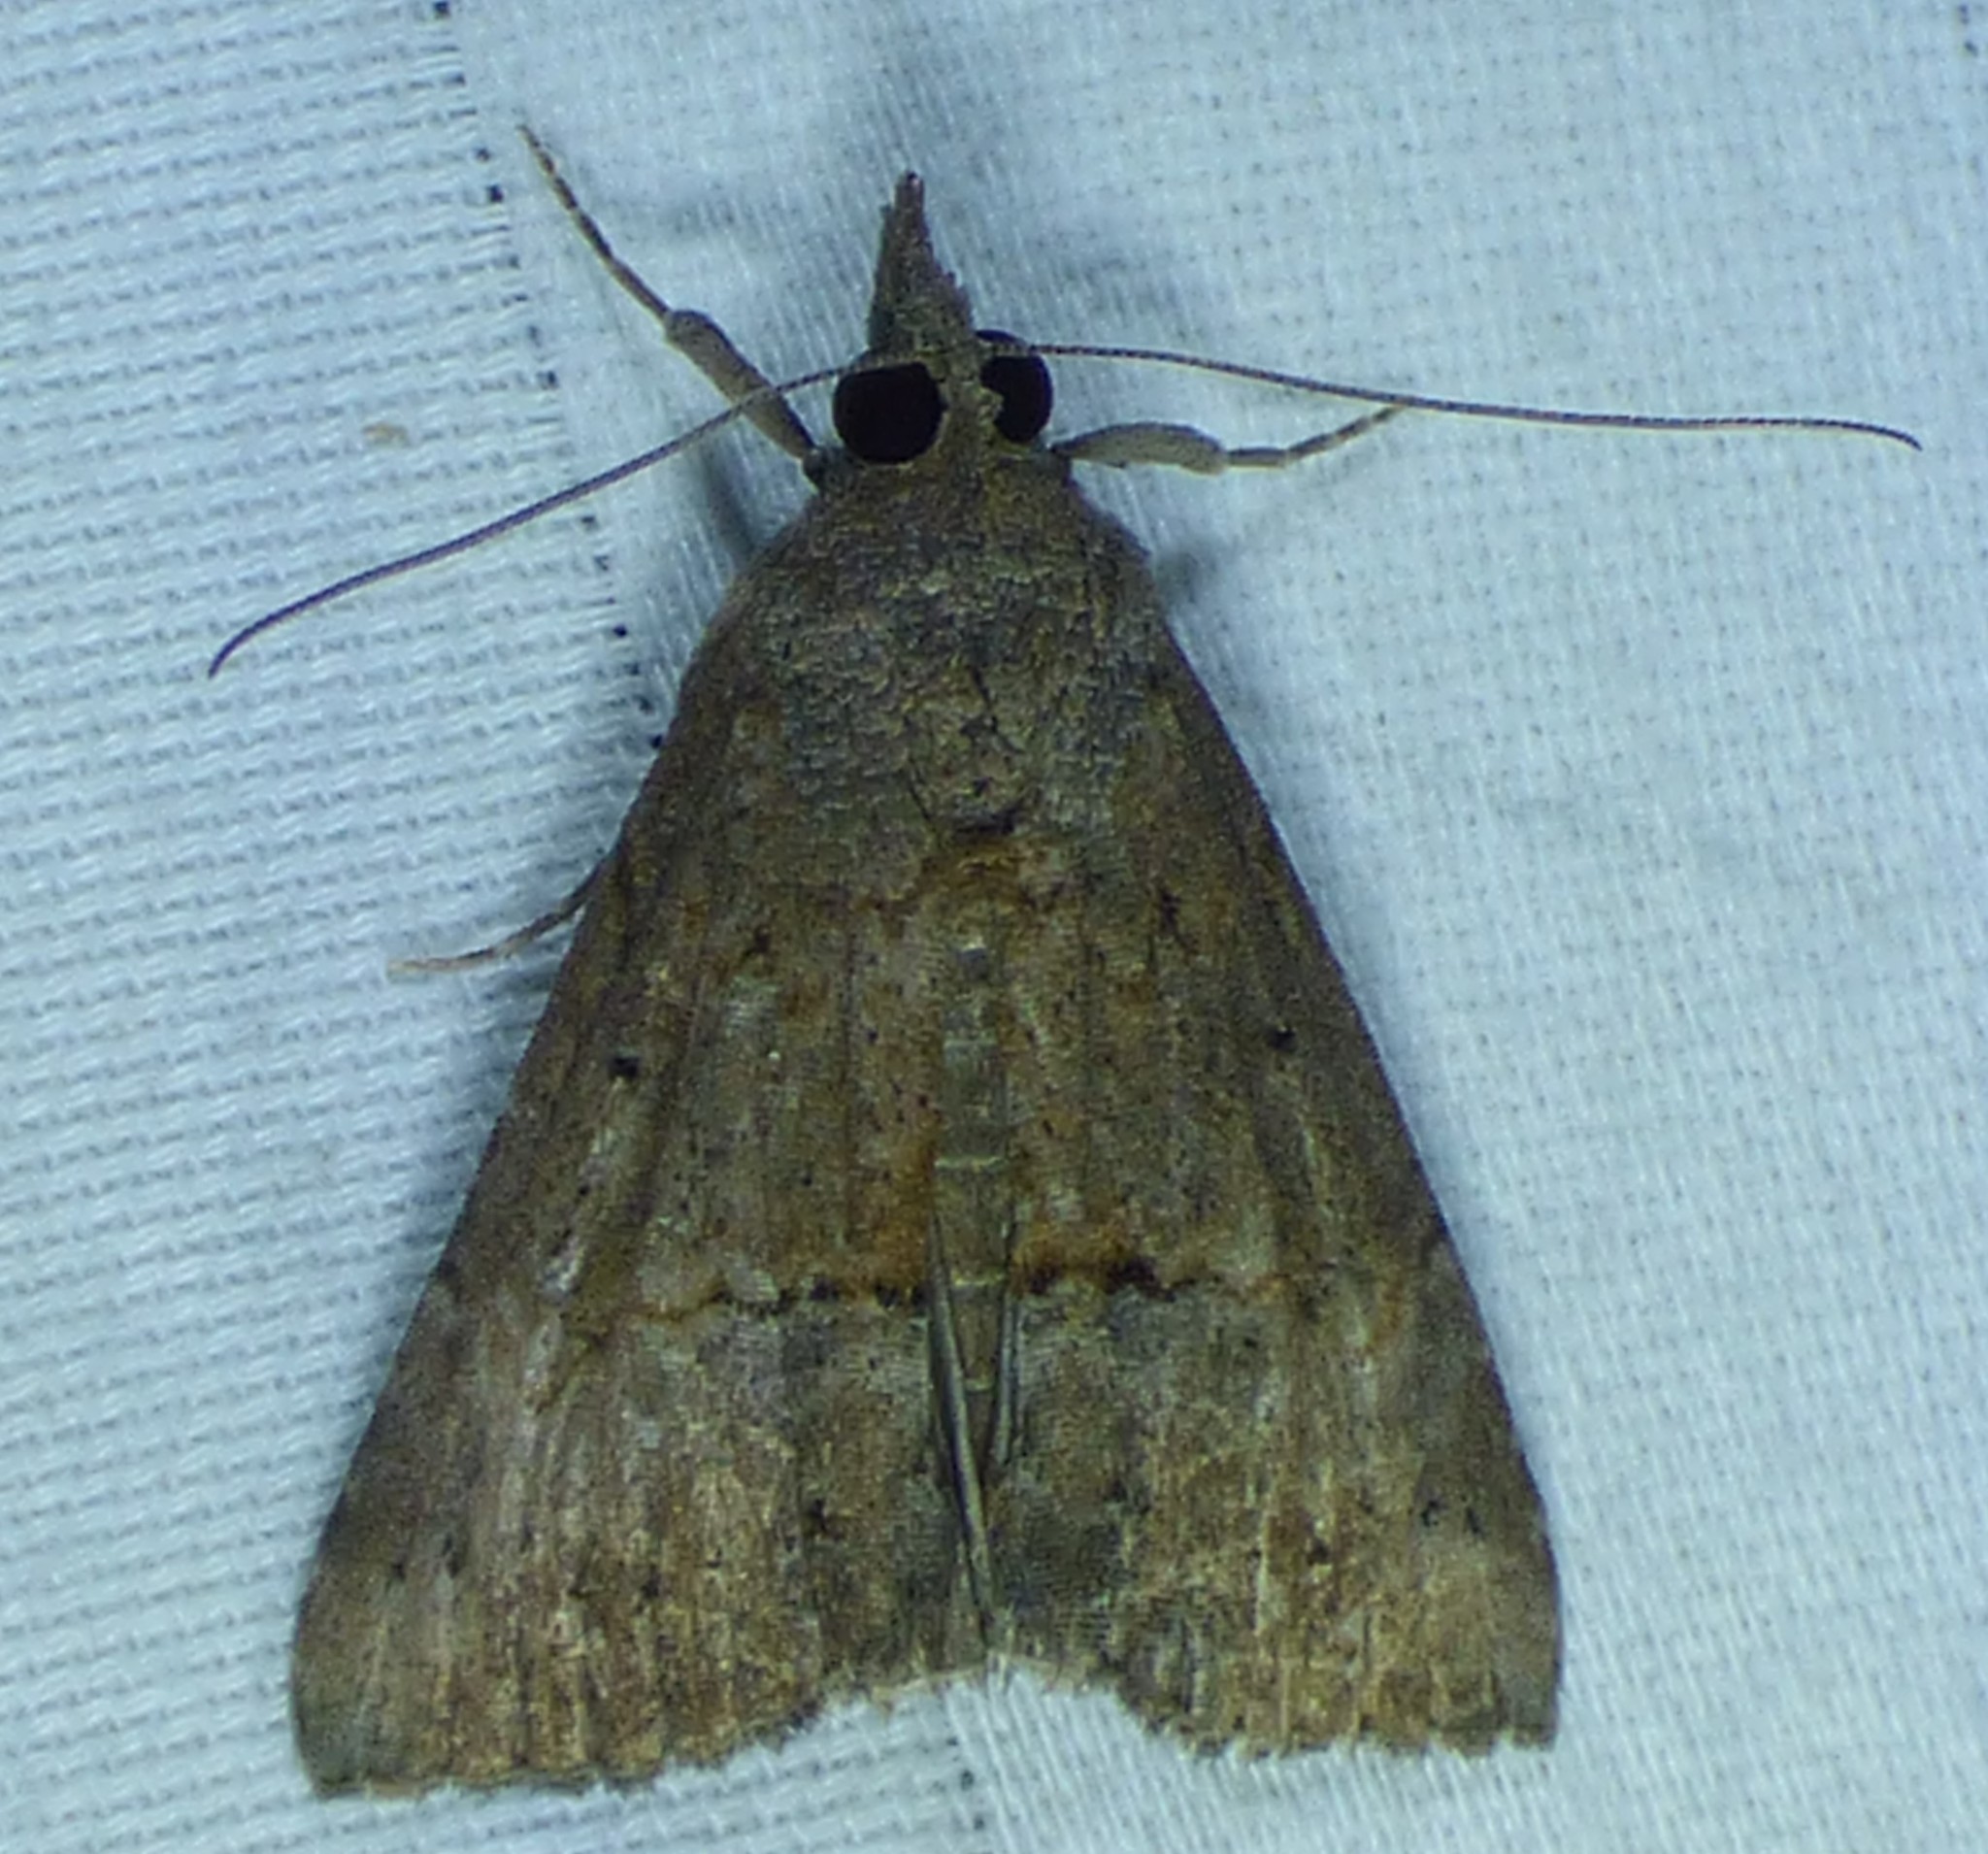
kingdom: Animalia
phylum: Arthropoda
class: Insecta
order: Lepidoptera
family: Erebidae
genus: Hypena
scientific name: Hypena scabra
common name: Green cloverworm
